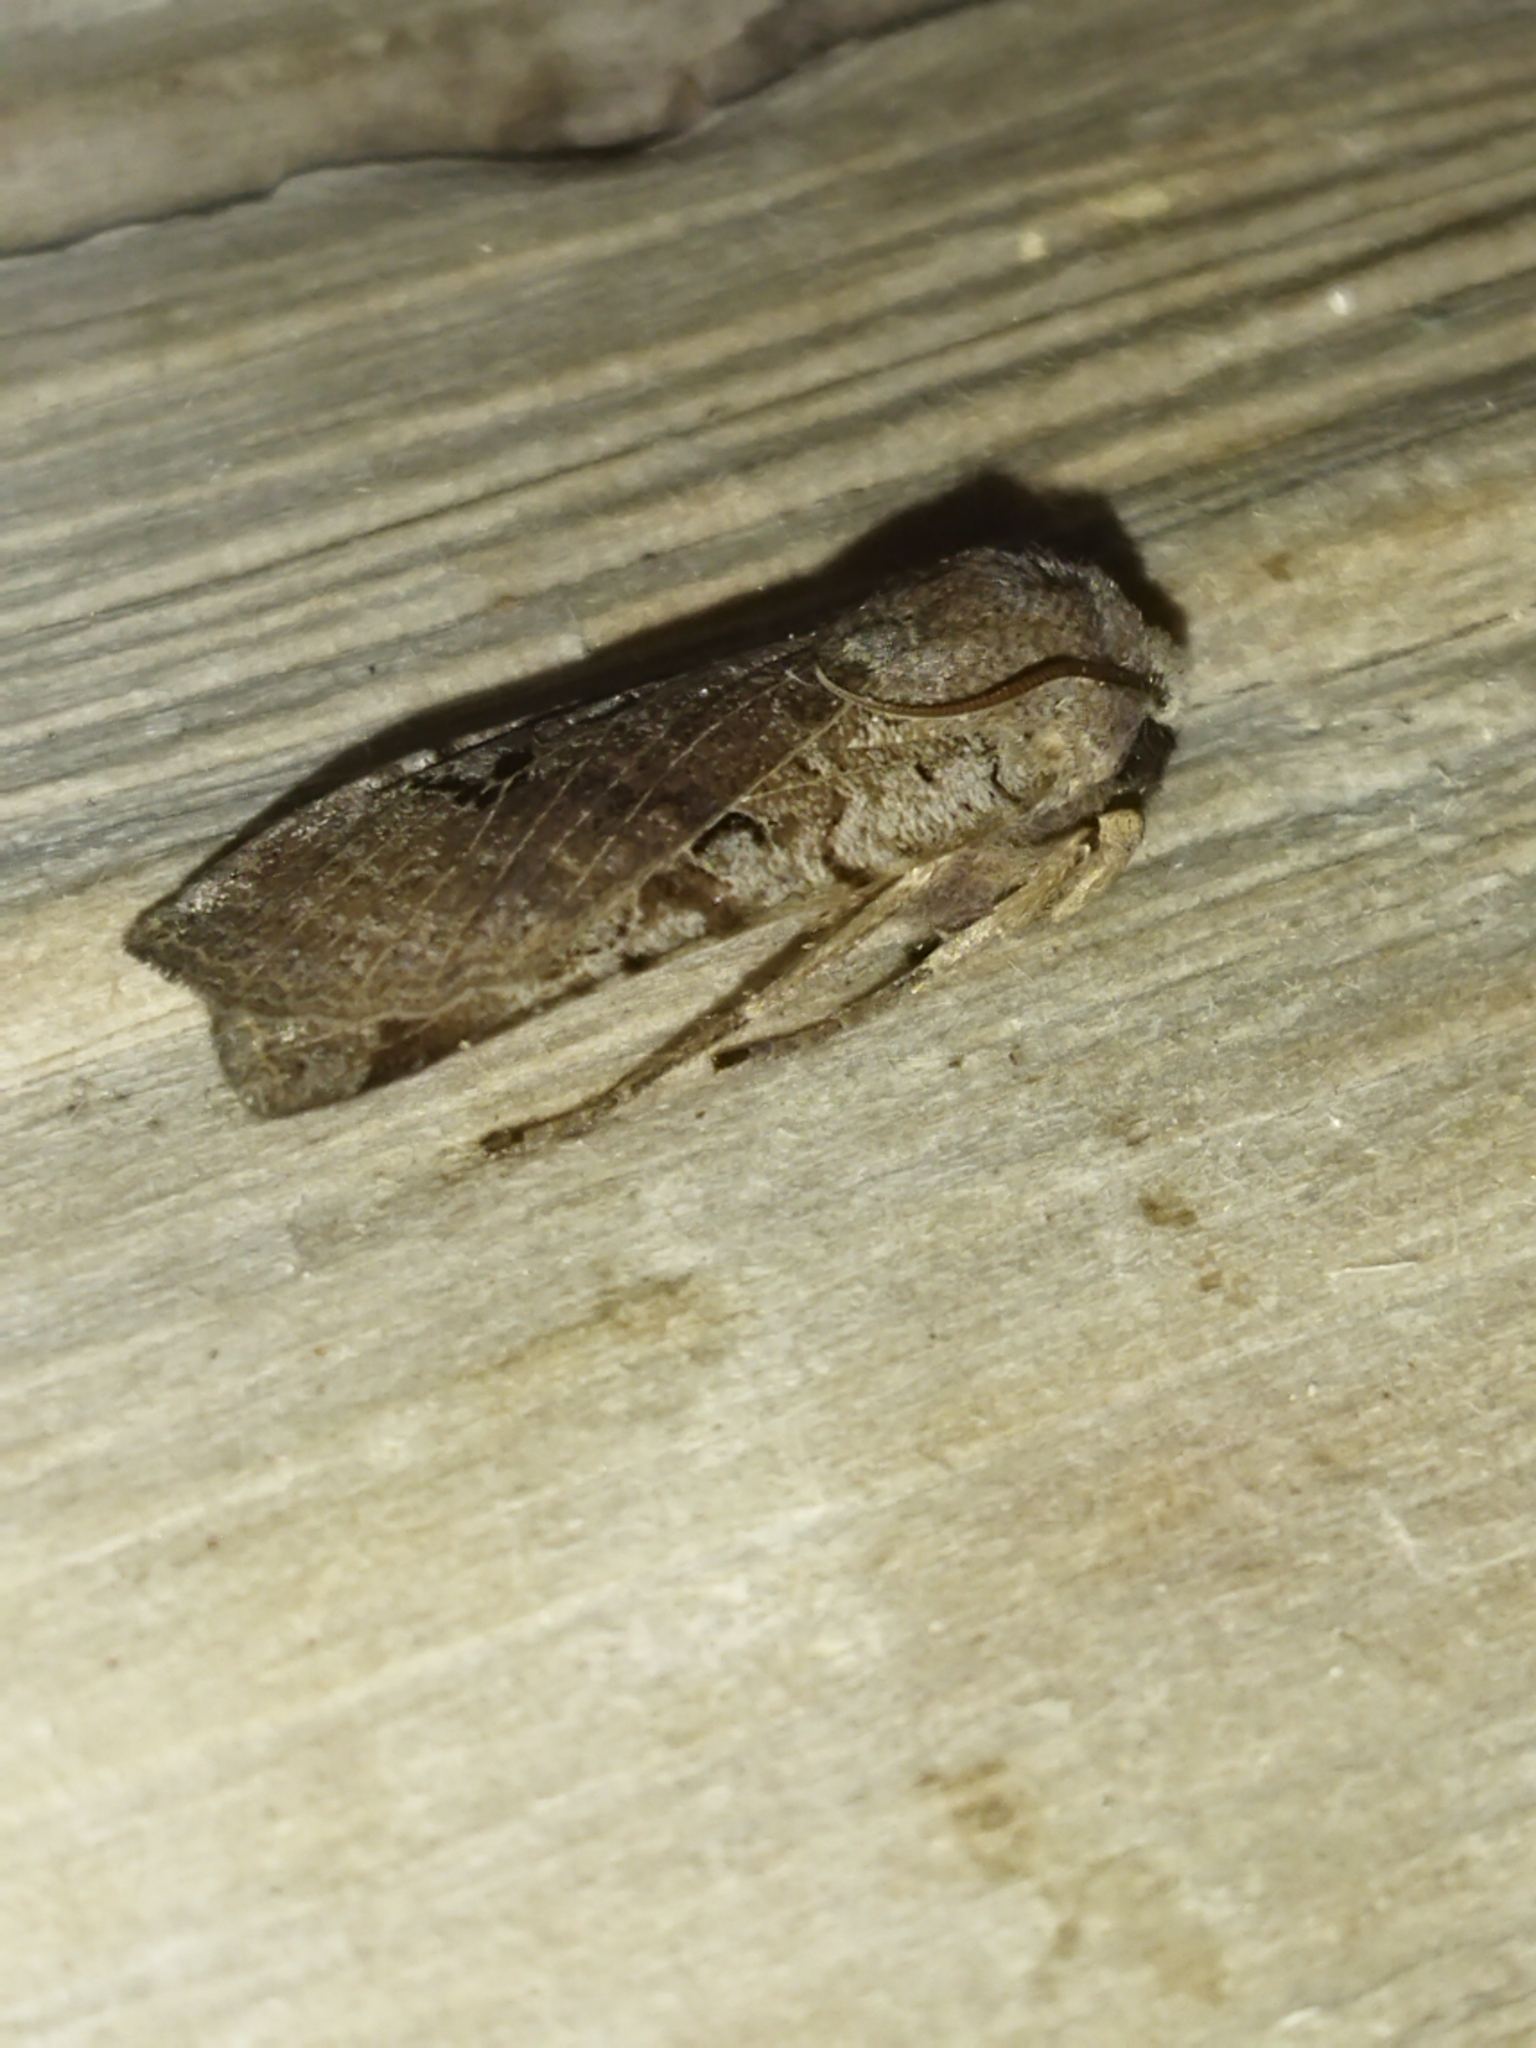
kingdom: Animalia
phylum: Arthropoda
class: Insecta
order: Lepidoptera
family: Noctuidae
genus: Conistra
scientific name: Conistra rubiginosa
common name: Black-spotted chestnut
